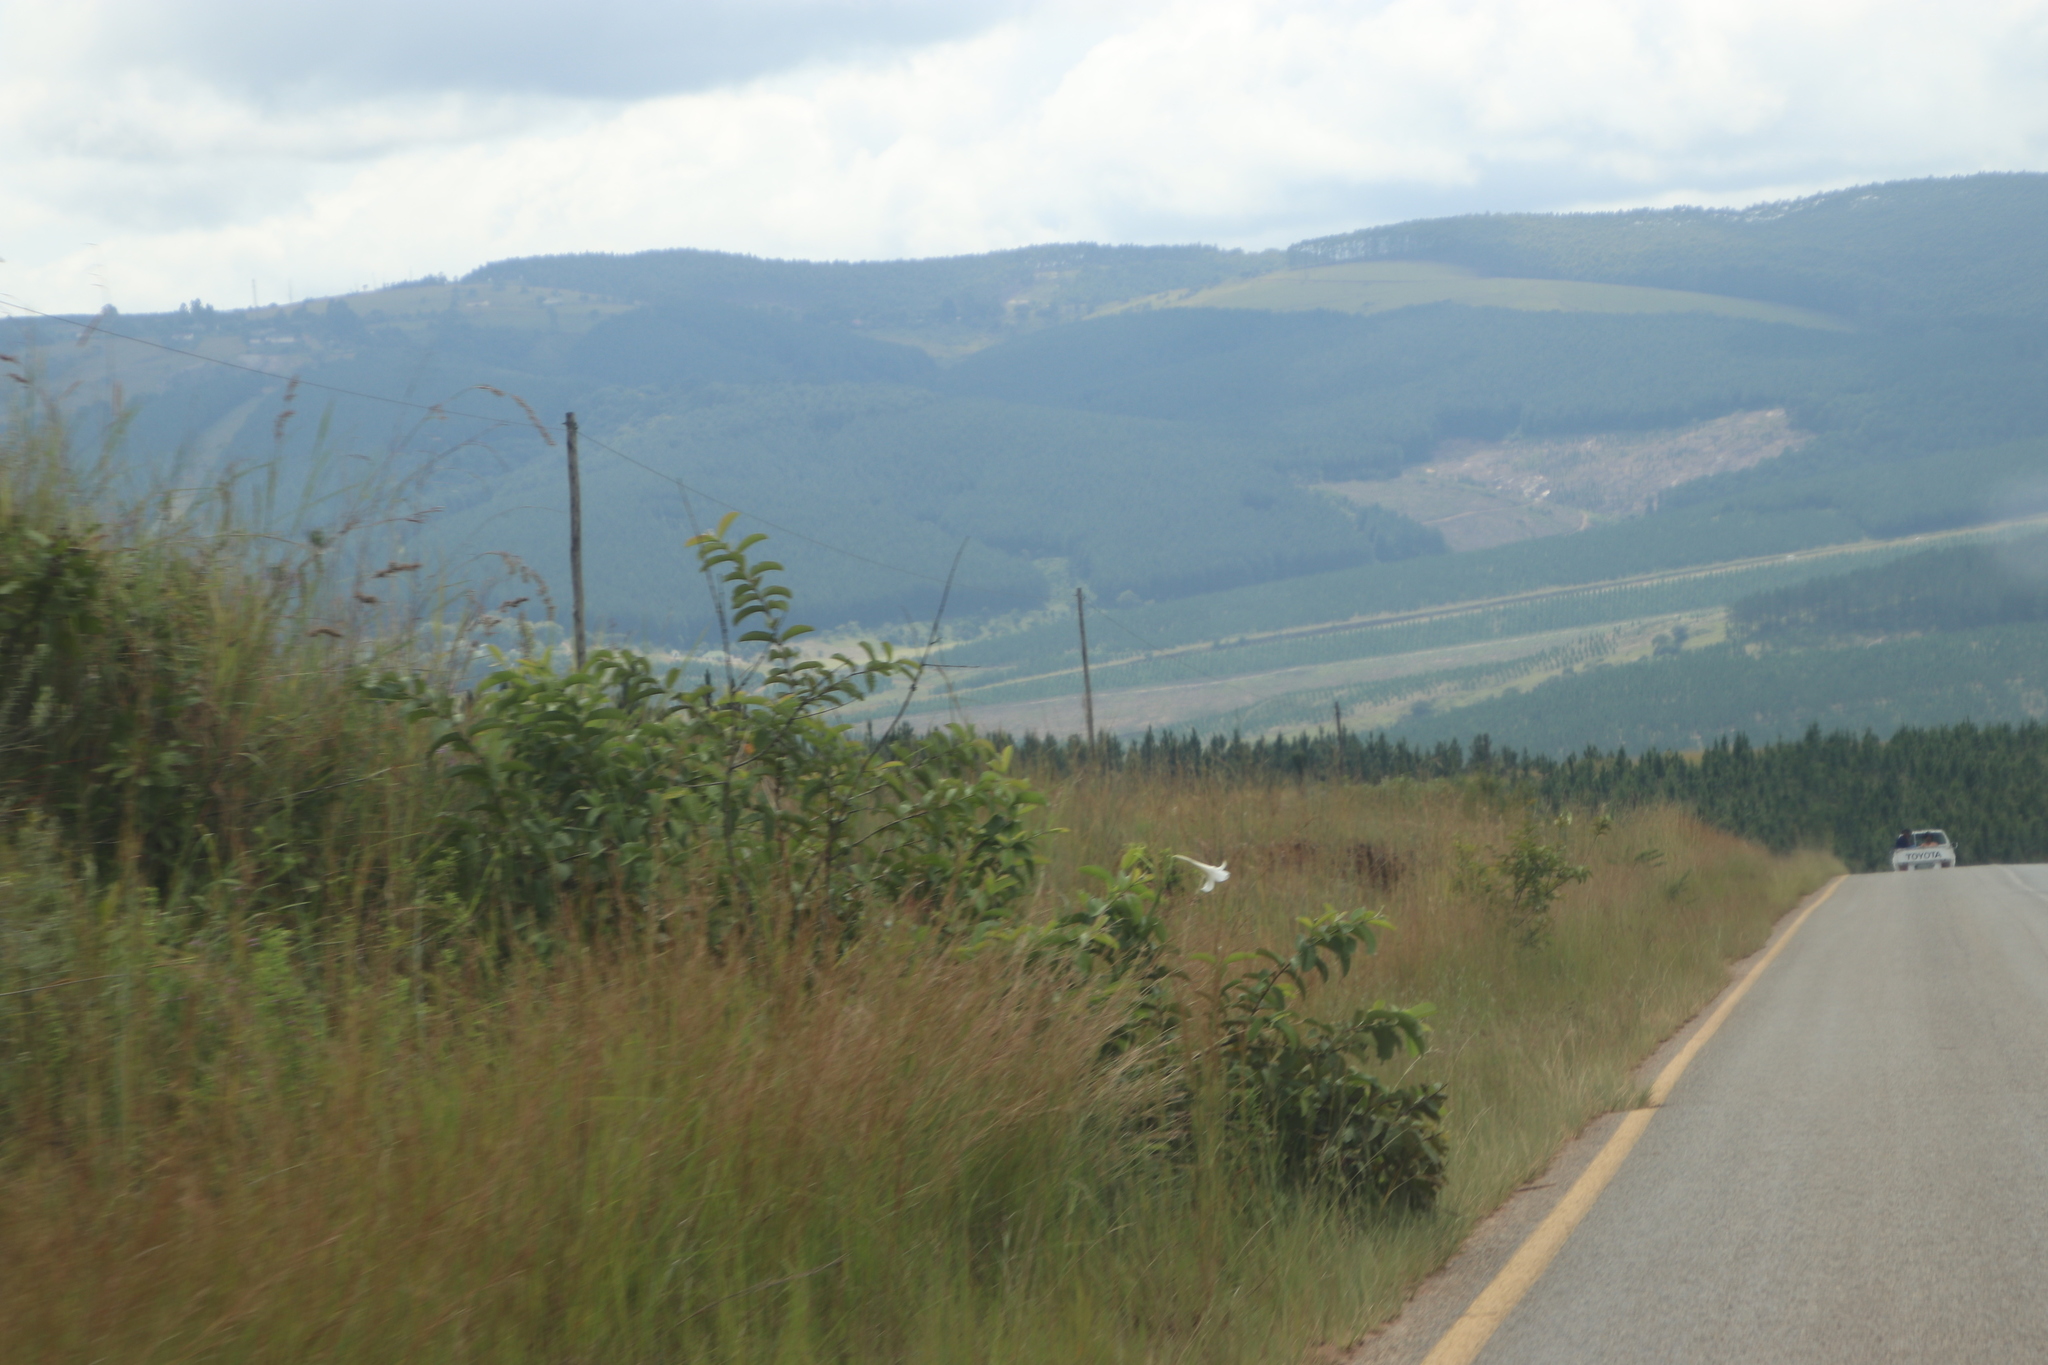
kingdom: Plantae
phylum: Tracheophyta
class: Liliopsida
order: Liliales
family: Liliaceae
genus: Lilium
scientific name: Lilium formosanum
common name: Formosa lily
